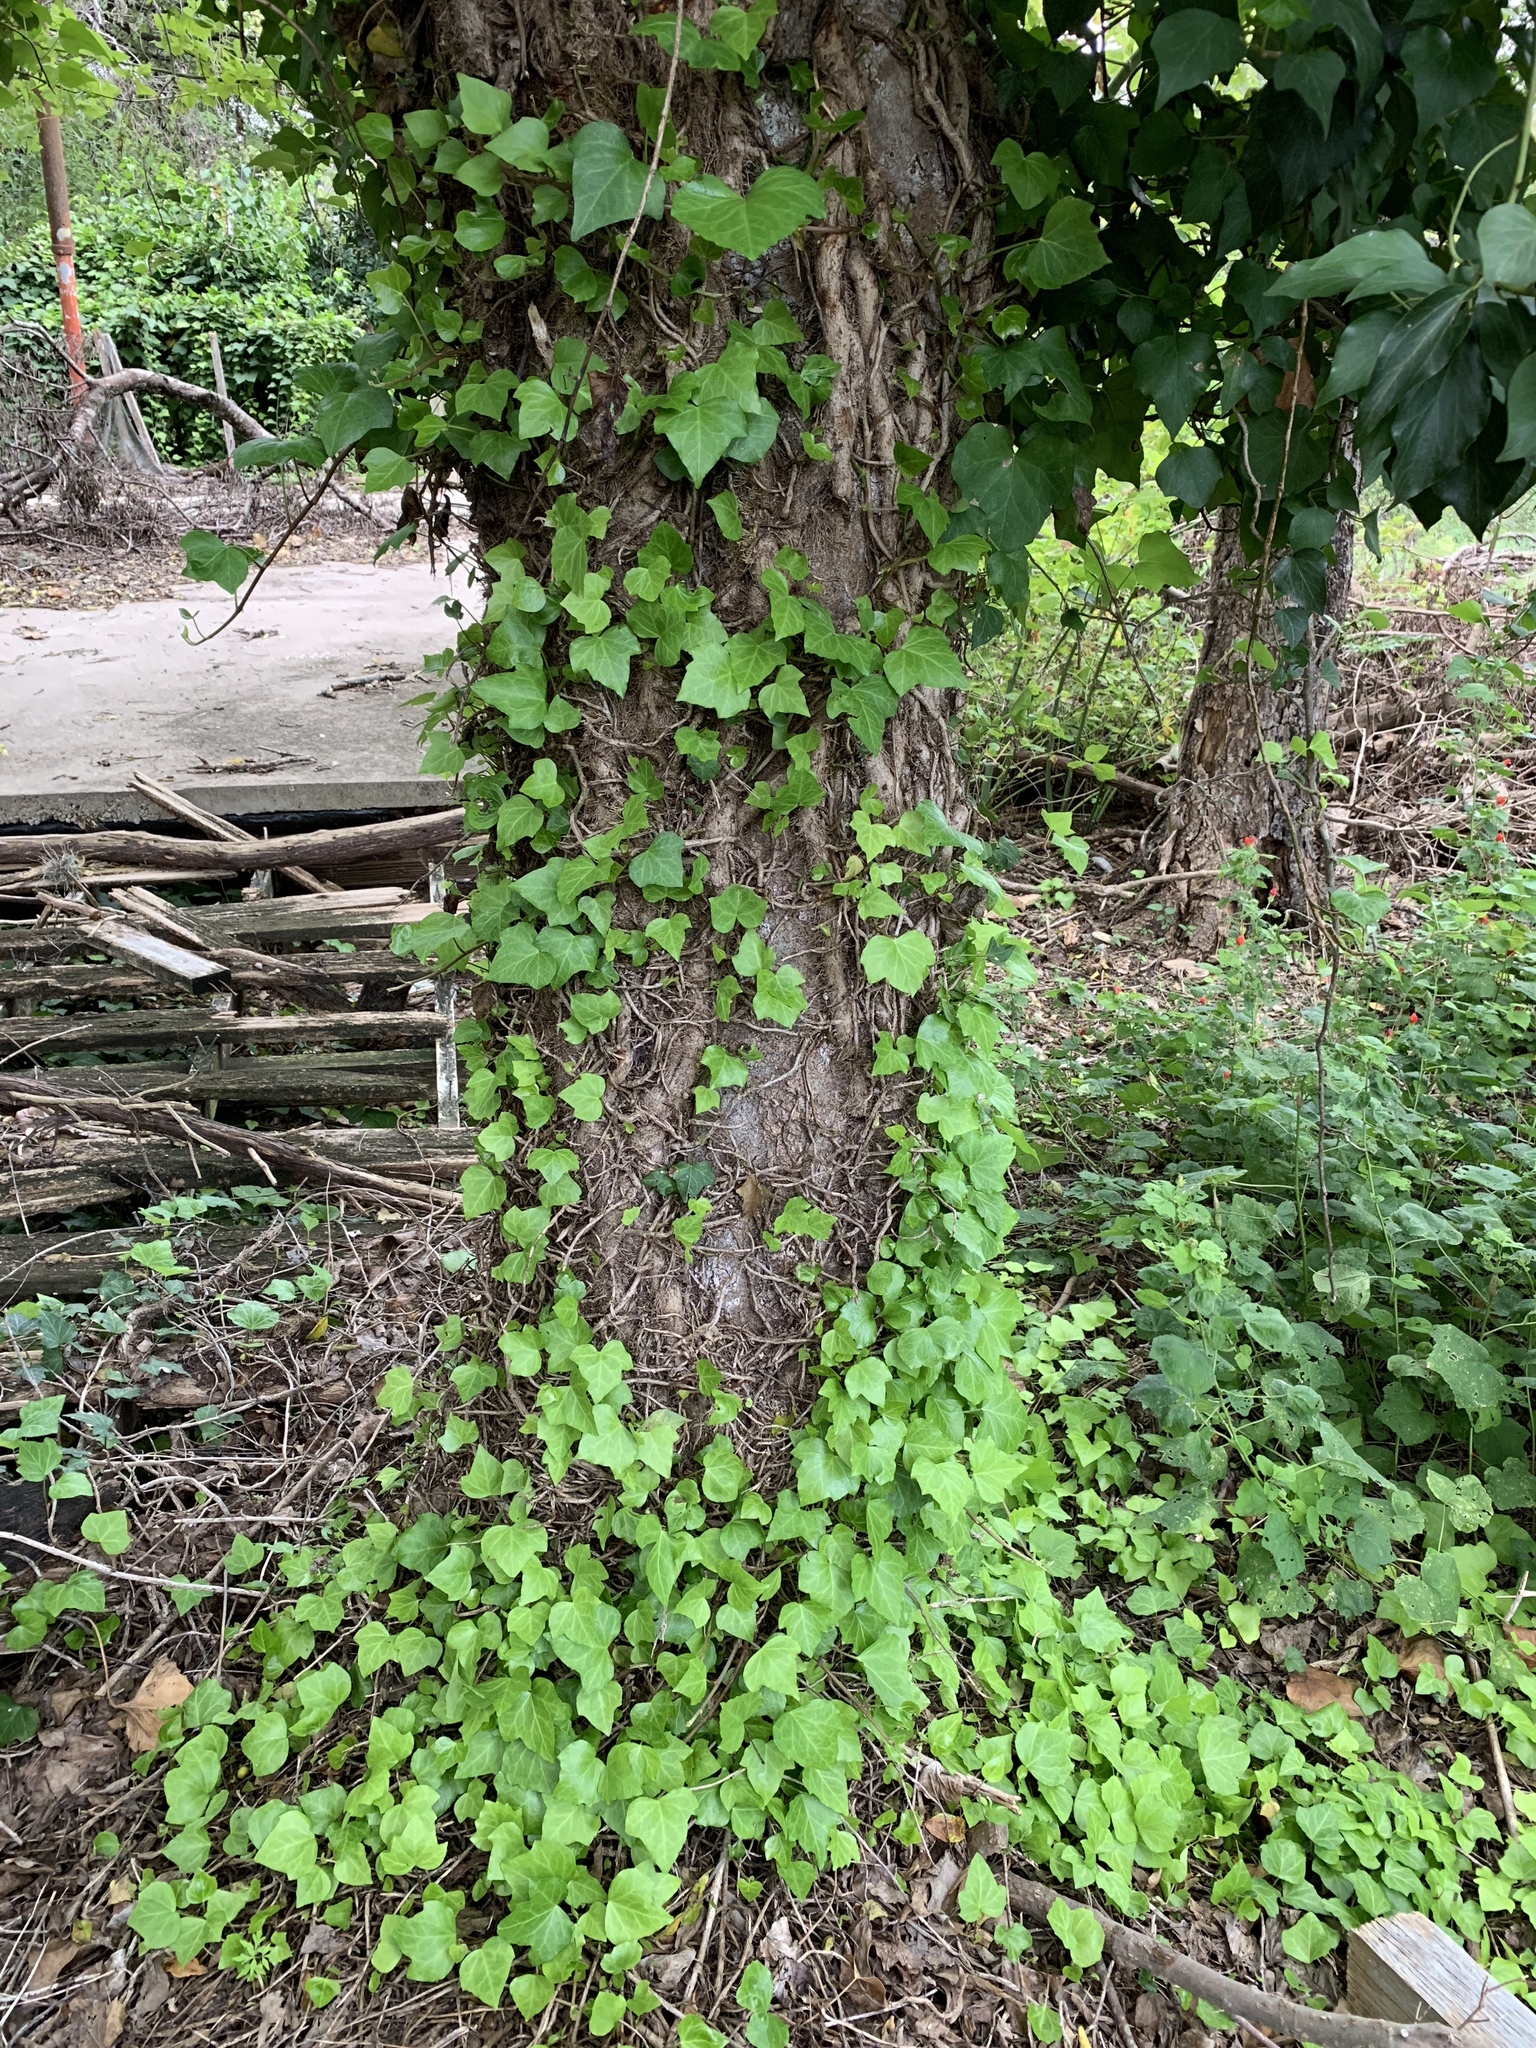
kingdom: Plantae
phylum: Tracheophyta
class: Magnoliopsida
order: Apiales
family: Araliaceae
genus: Hedera
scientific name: Hedera helix
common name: Ivy
